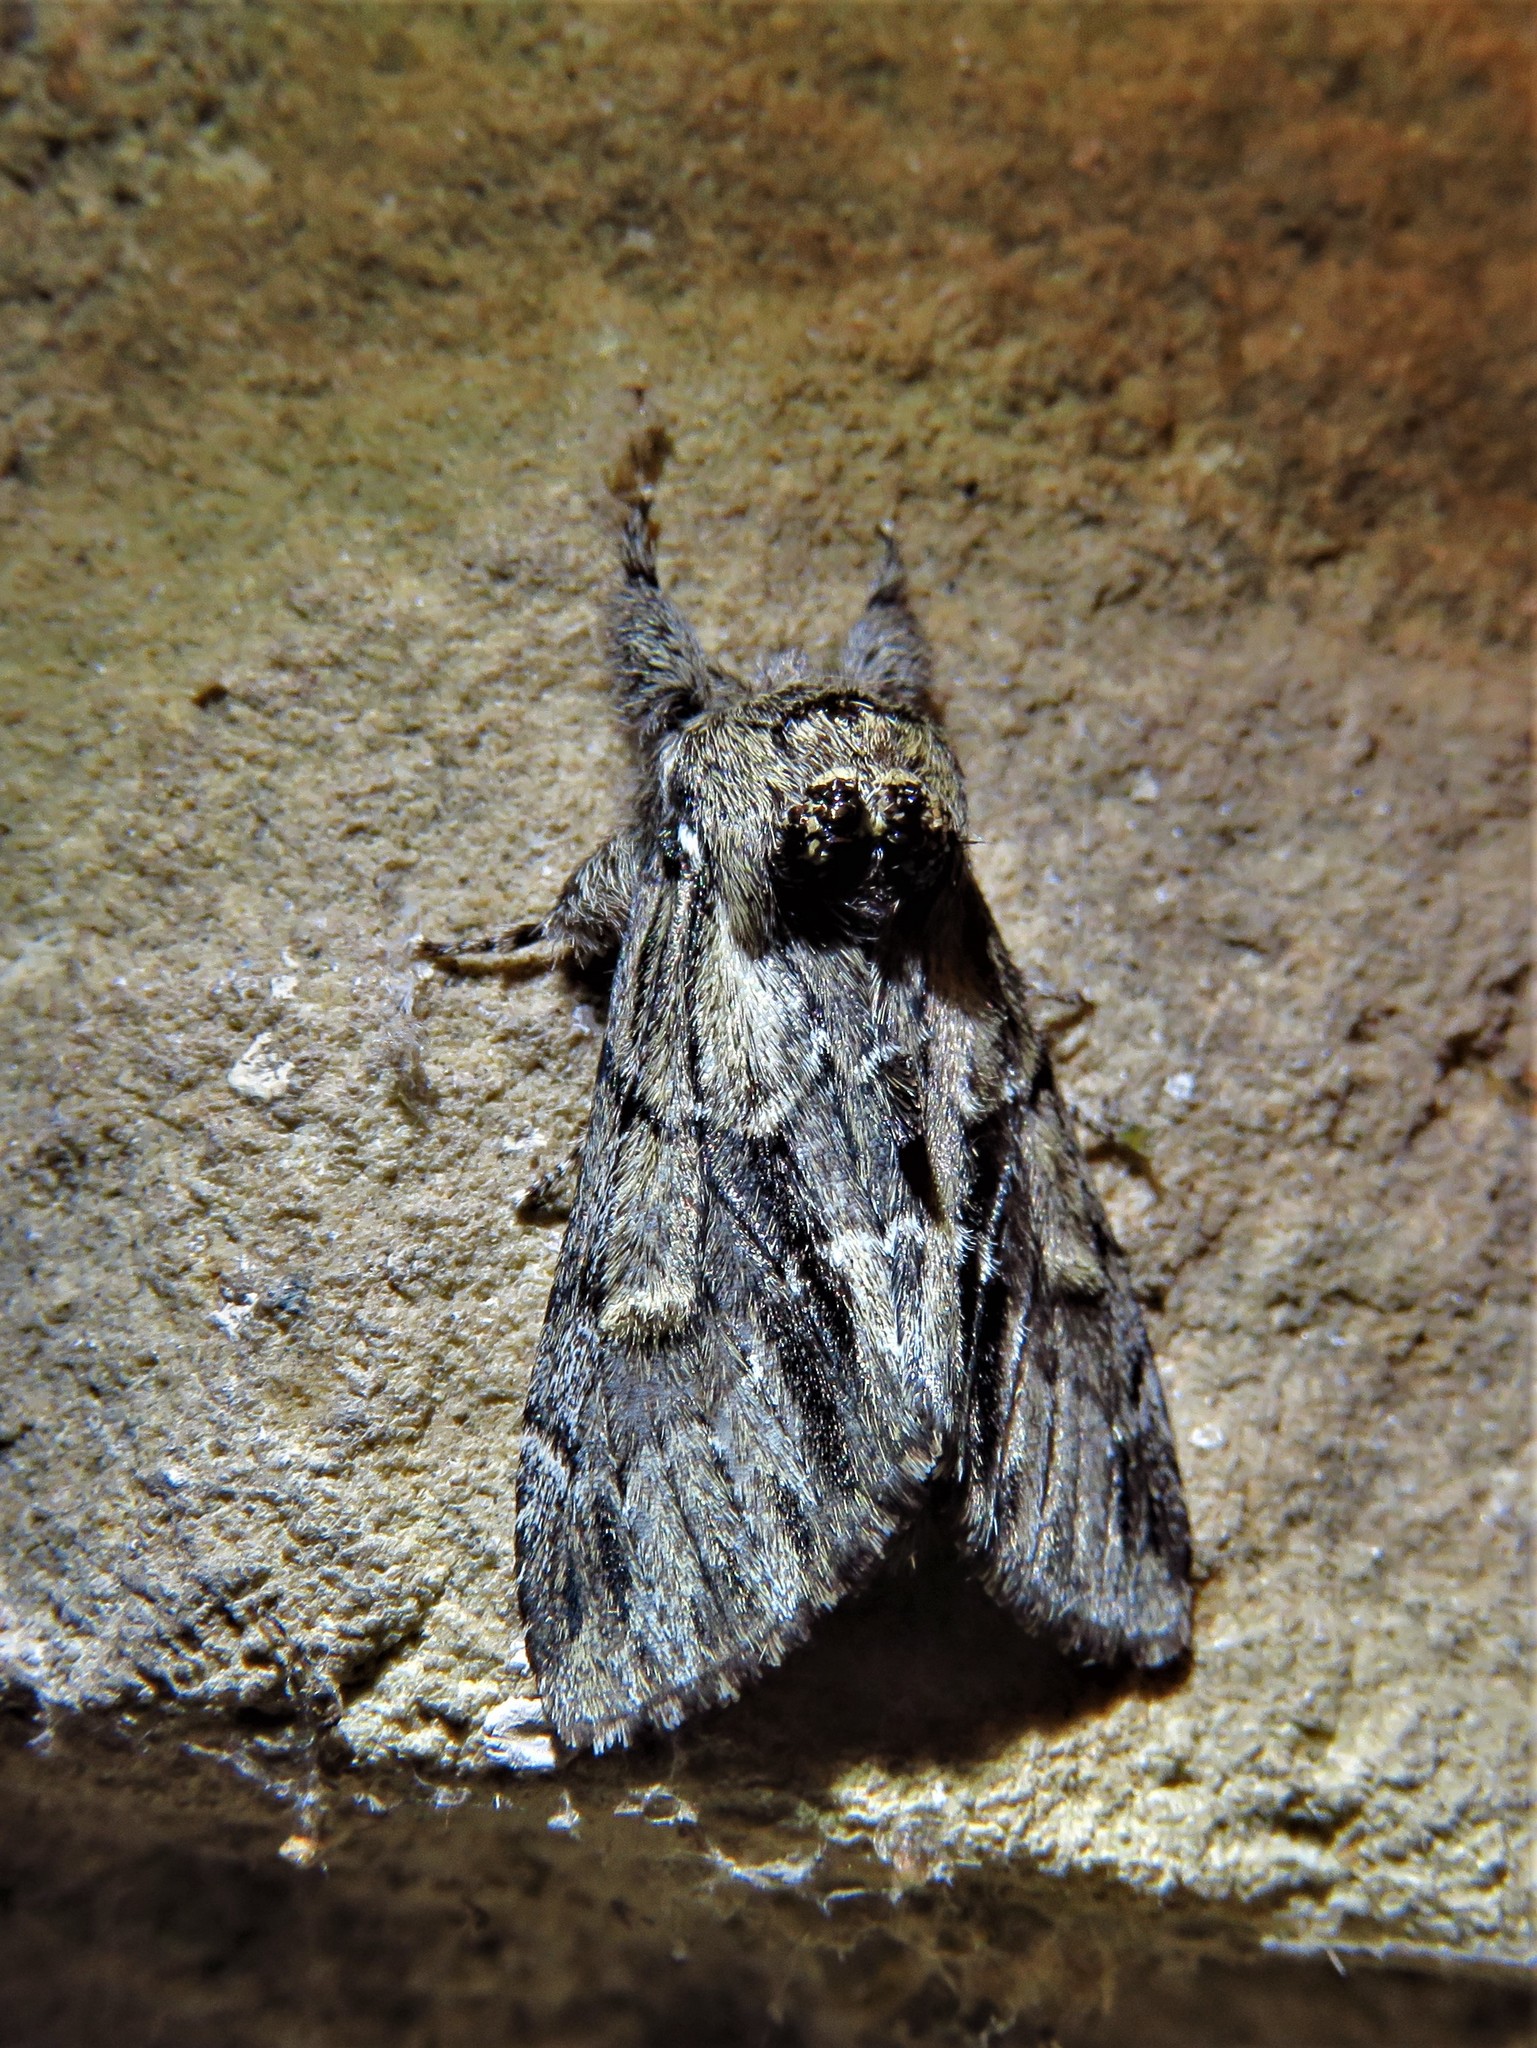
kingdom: Animalia
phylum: Arthropoda
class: Insecta
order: Lepidoptera
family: Notodontidae
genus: Paraeschra
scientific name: Paraeschra georgica
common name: Georgian prominent
